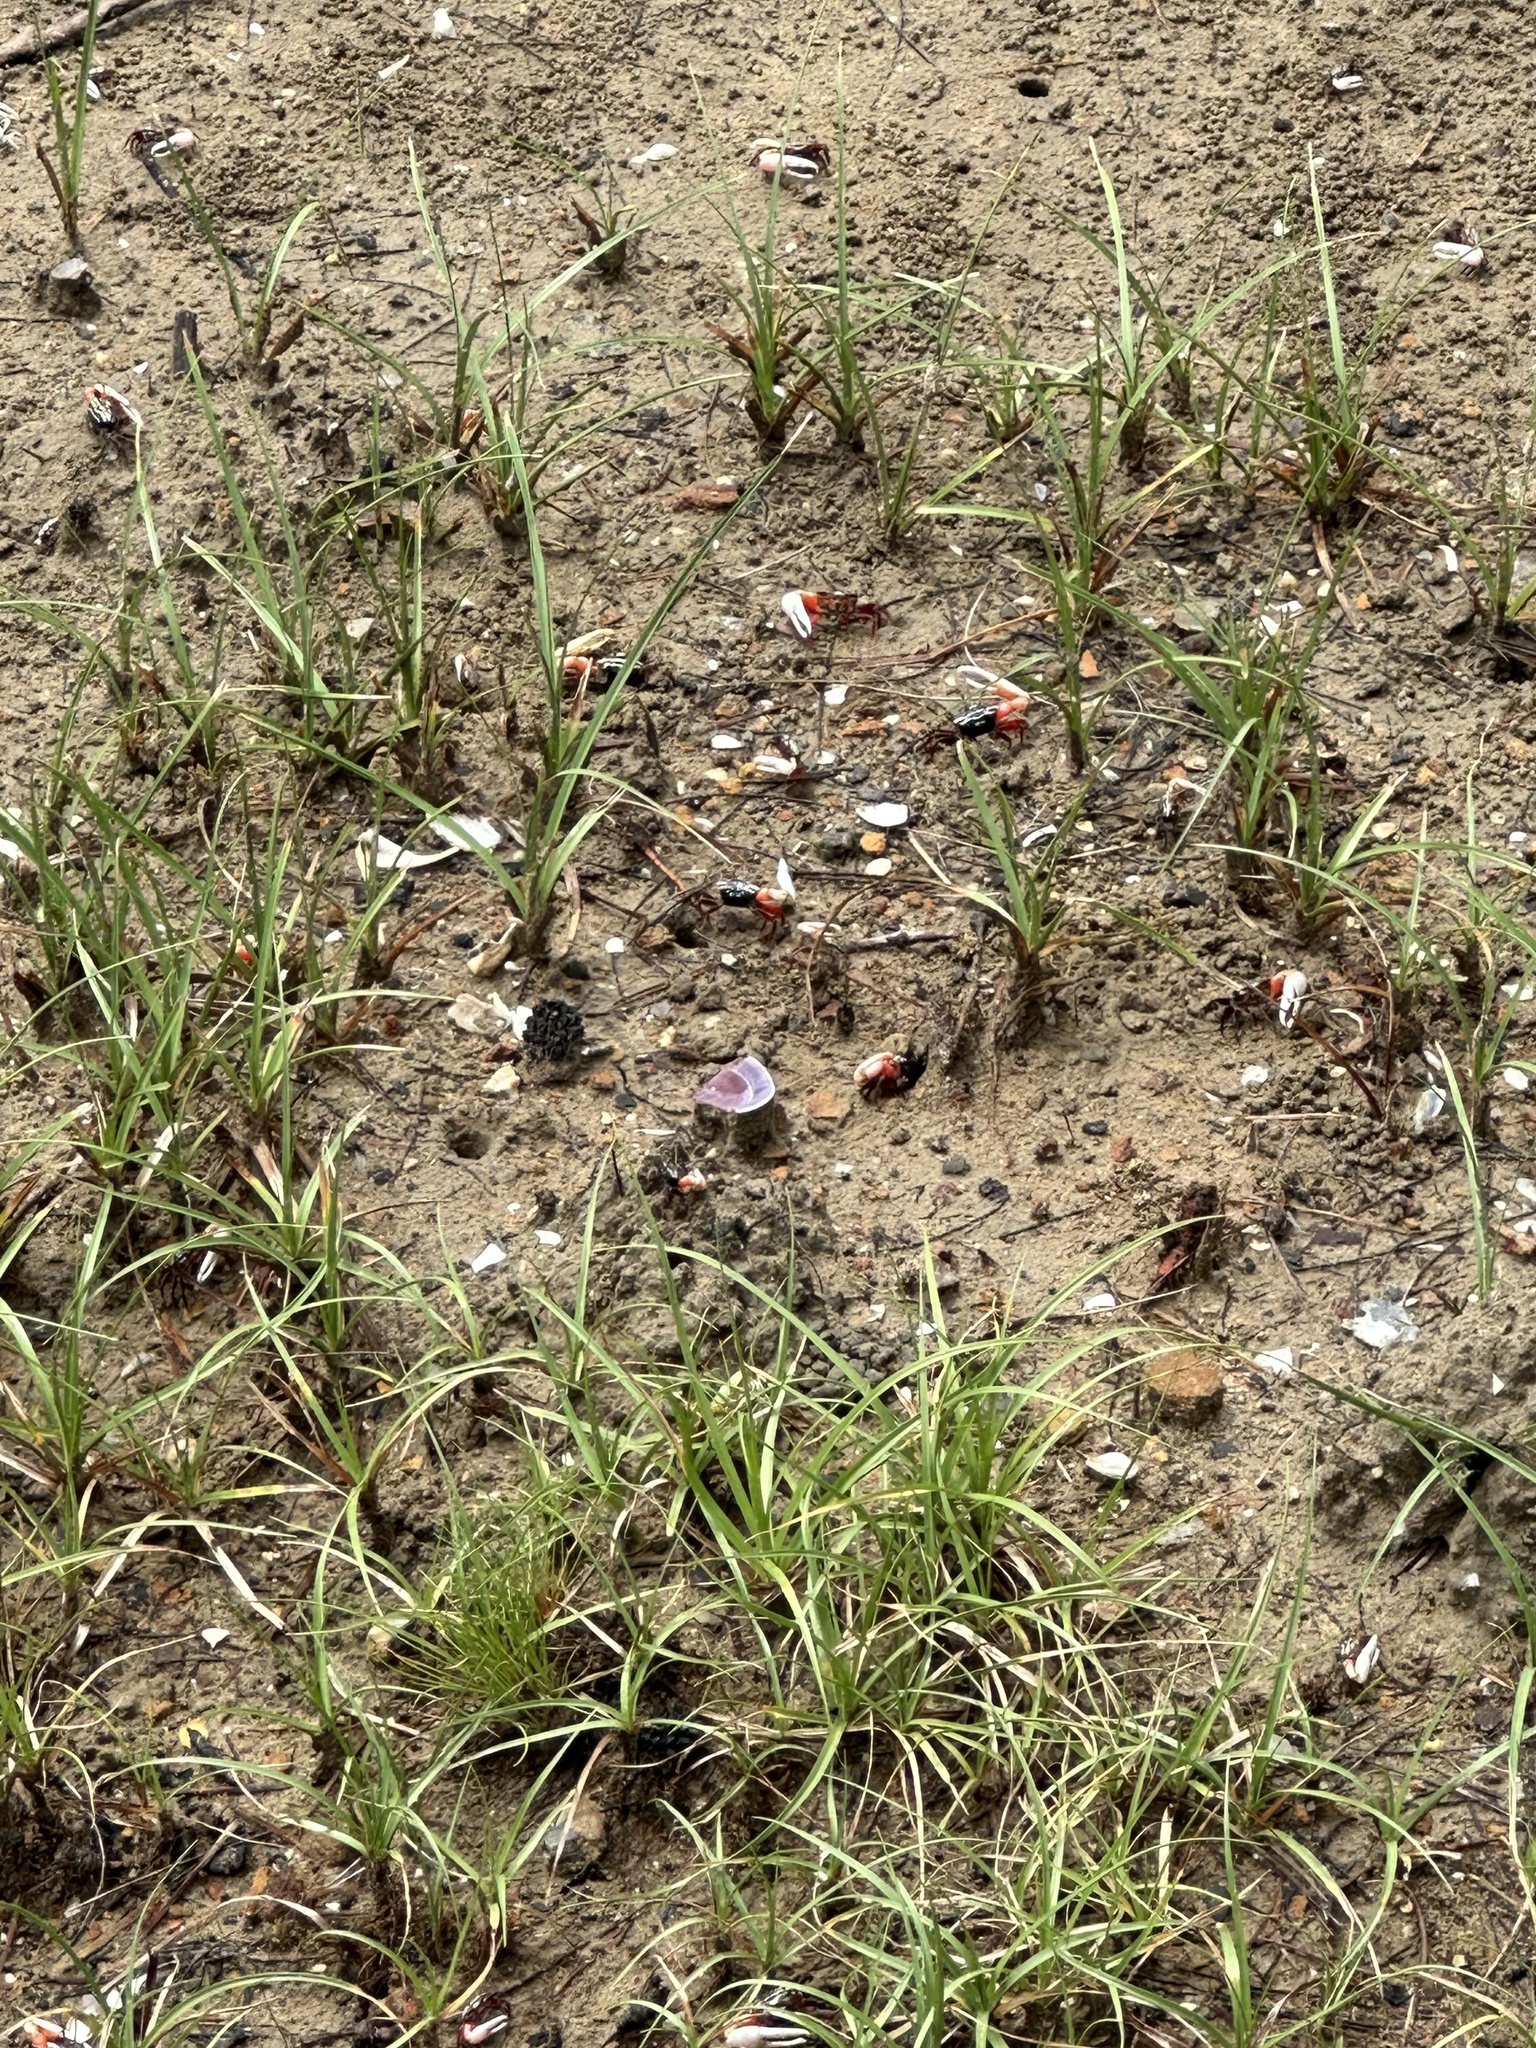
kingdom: Animalia
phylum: Arthropoda
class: Malacostraca
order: Decapoda
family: Ocypodidae
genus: Austruca
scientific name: Austruca annulipes
